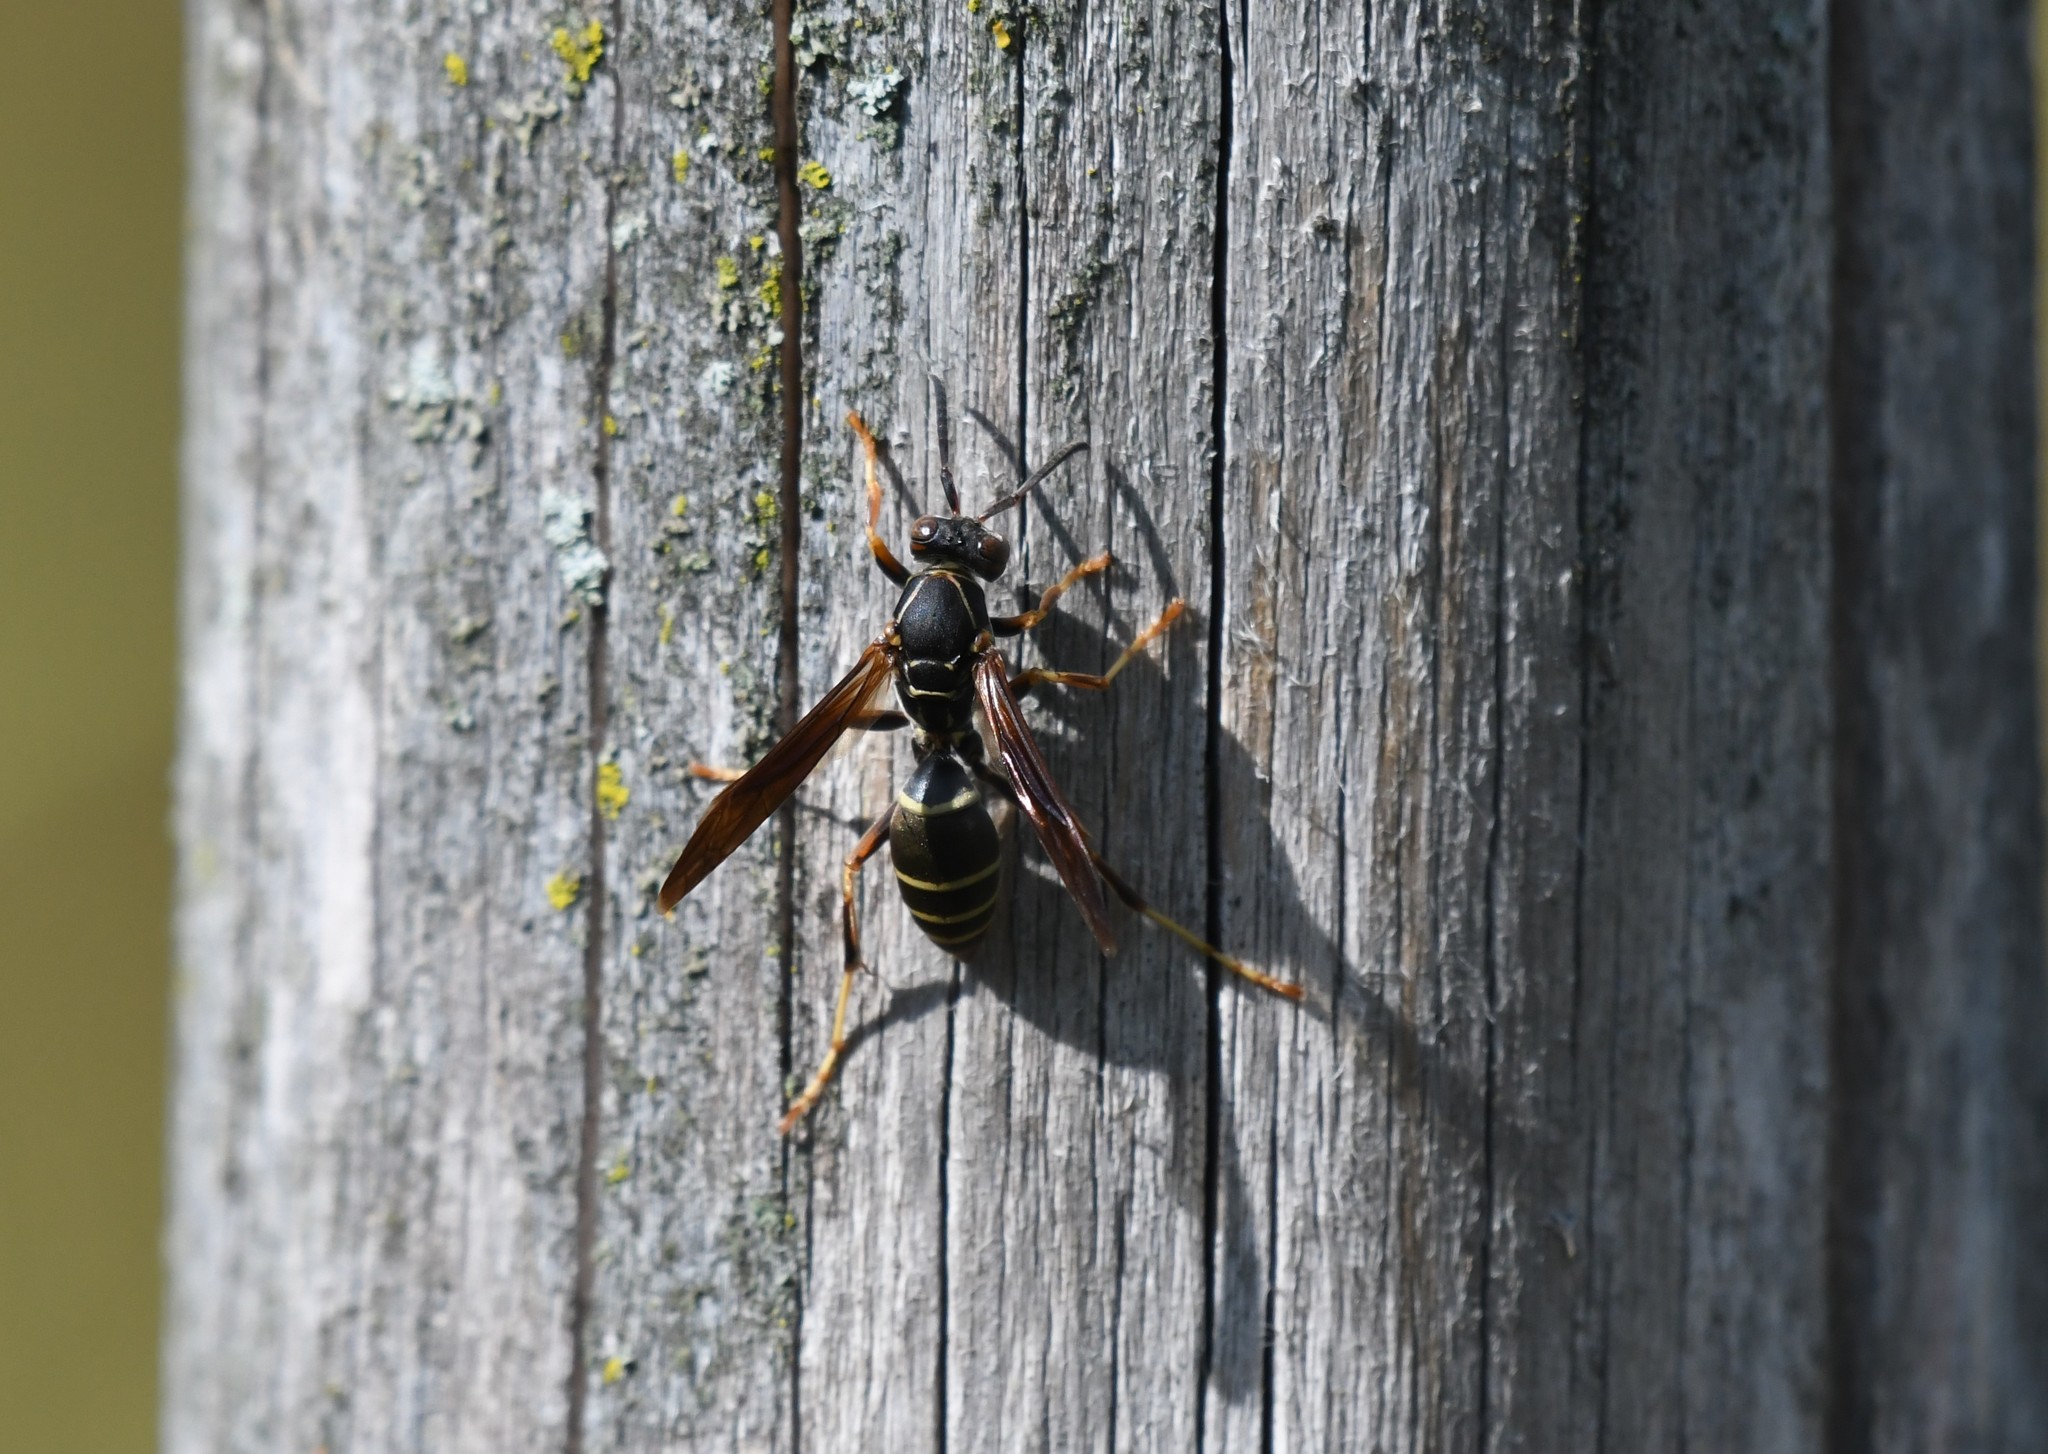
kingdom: Animalia
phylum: Arthropoda
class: Insecta
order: Hymenoptera
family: Eumenidae
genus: Polistes
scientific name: Polistes fuscatus
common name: Dark paper wasp
